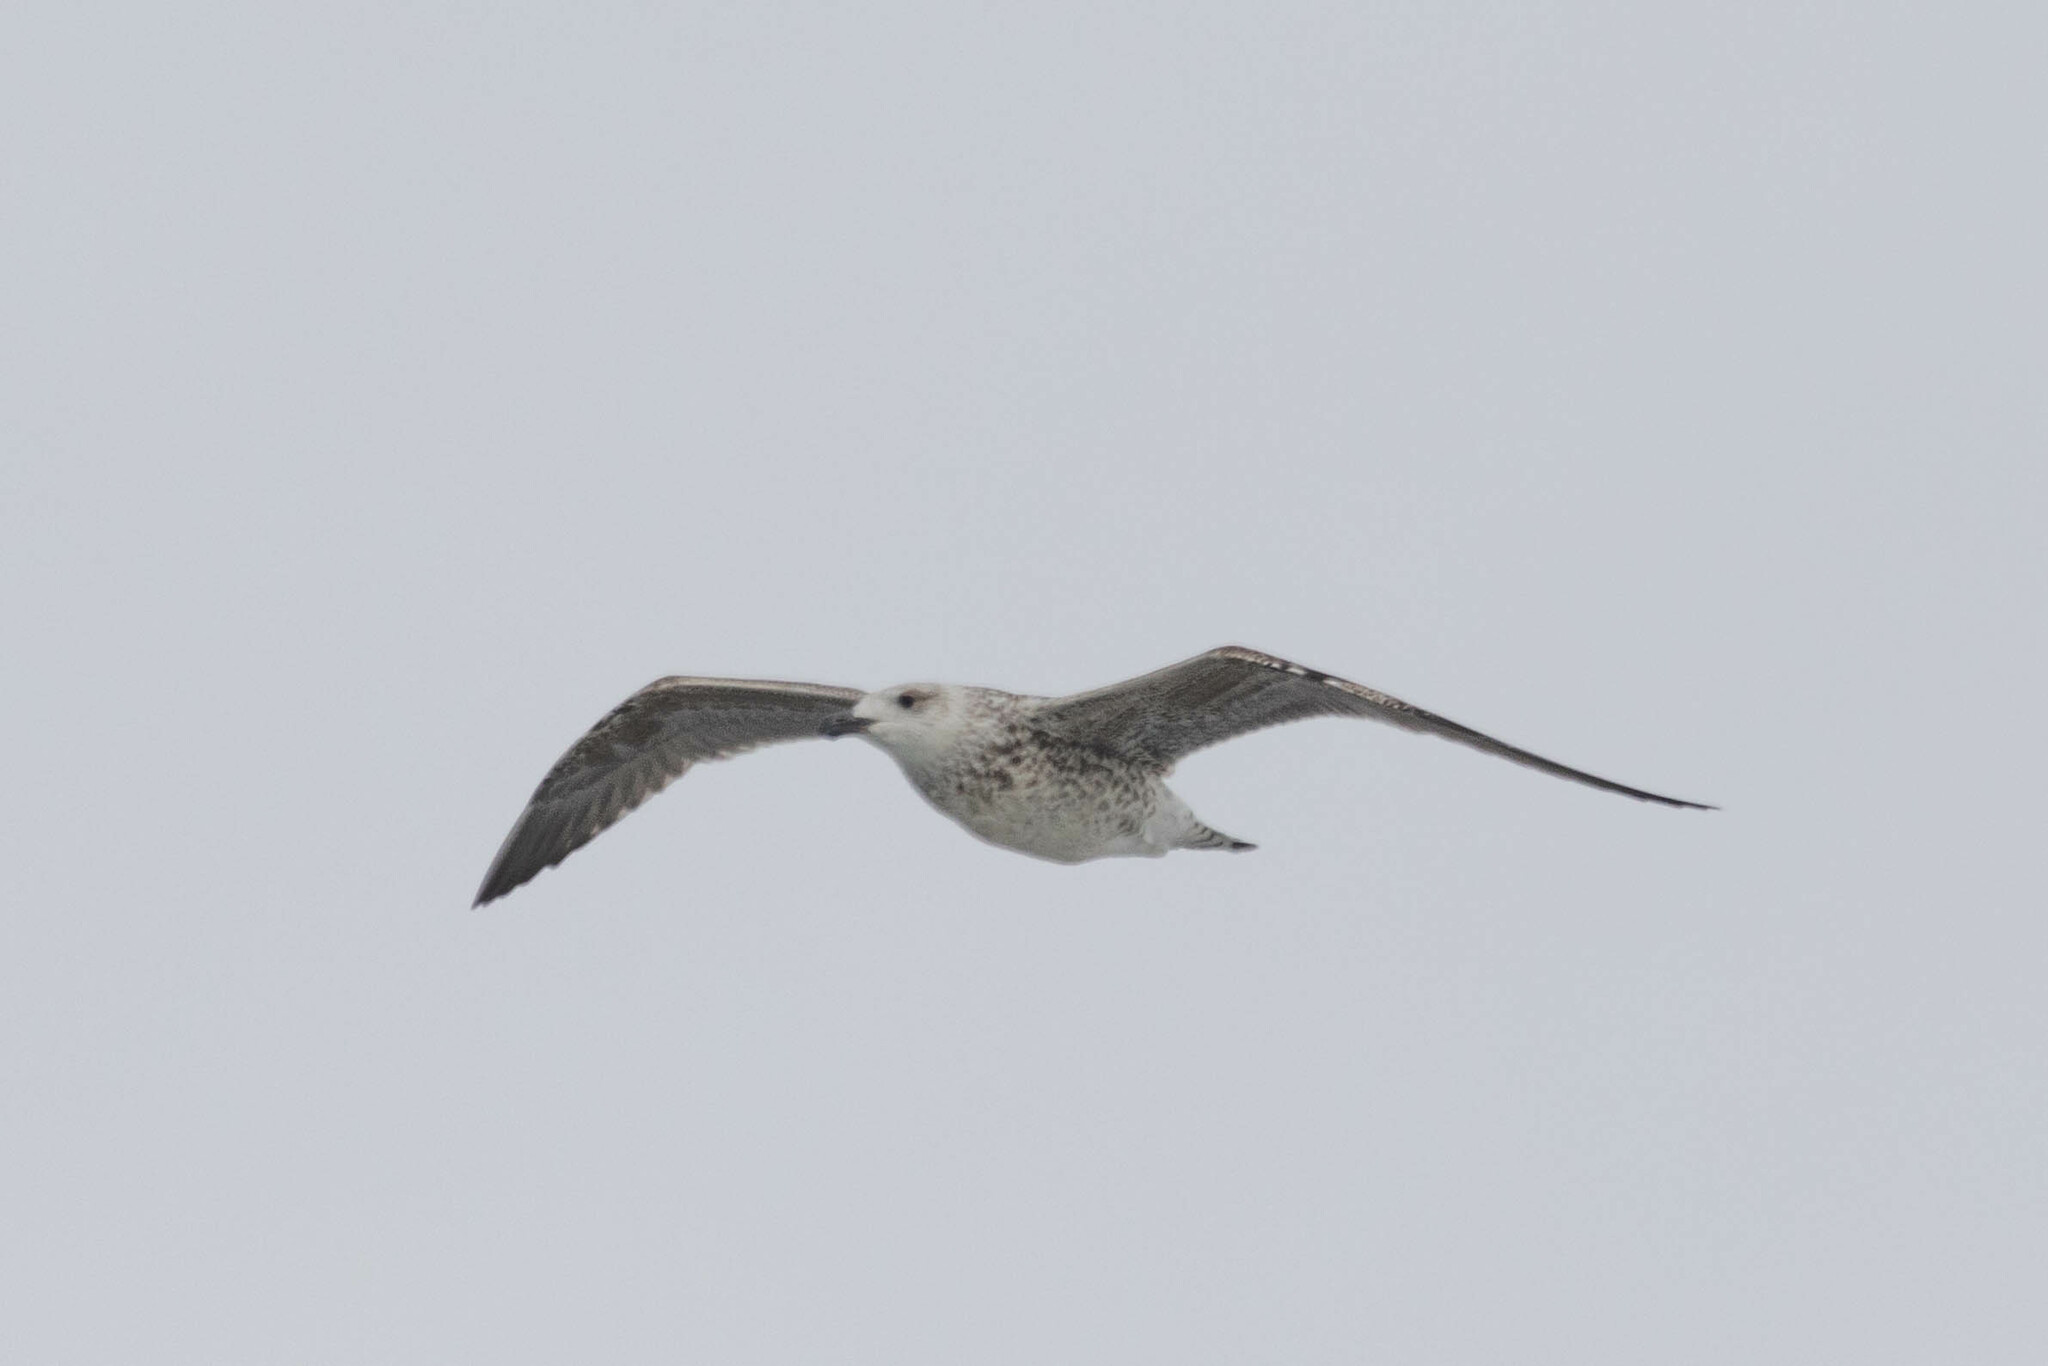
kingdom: Animalia
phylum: Chordata
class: Aves
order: Charadriiformes
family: Laridae
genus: Larus
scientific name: Larus marinus
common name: Great black-backed gull
